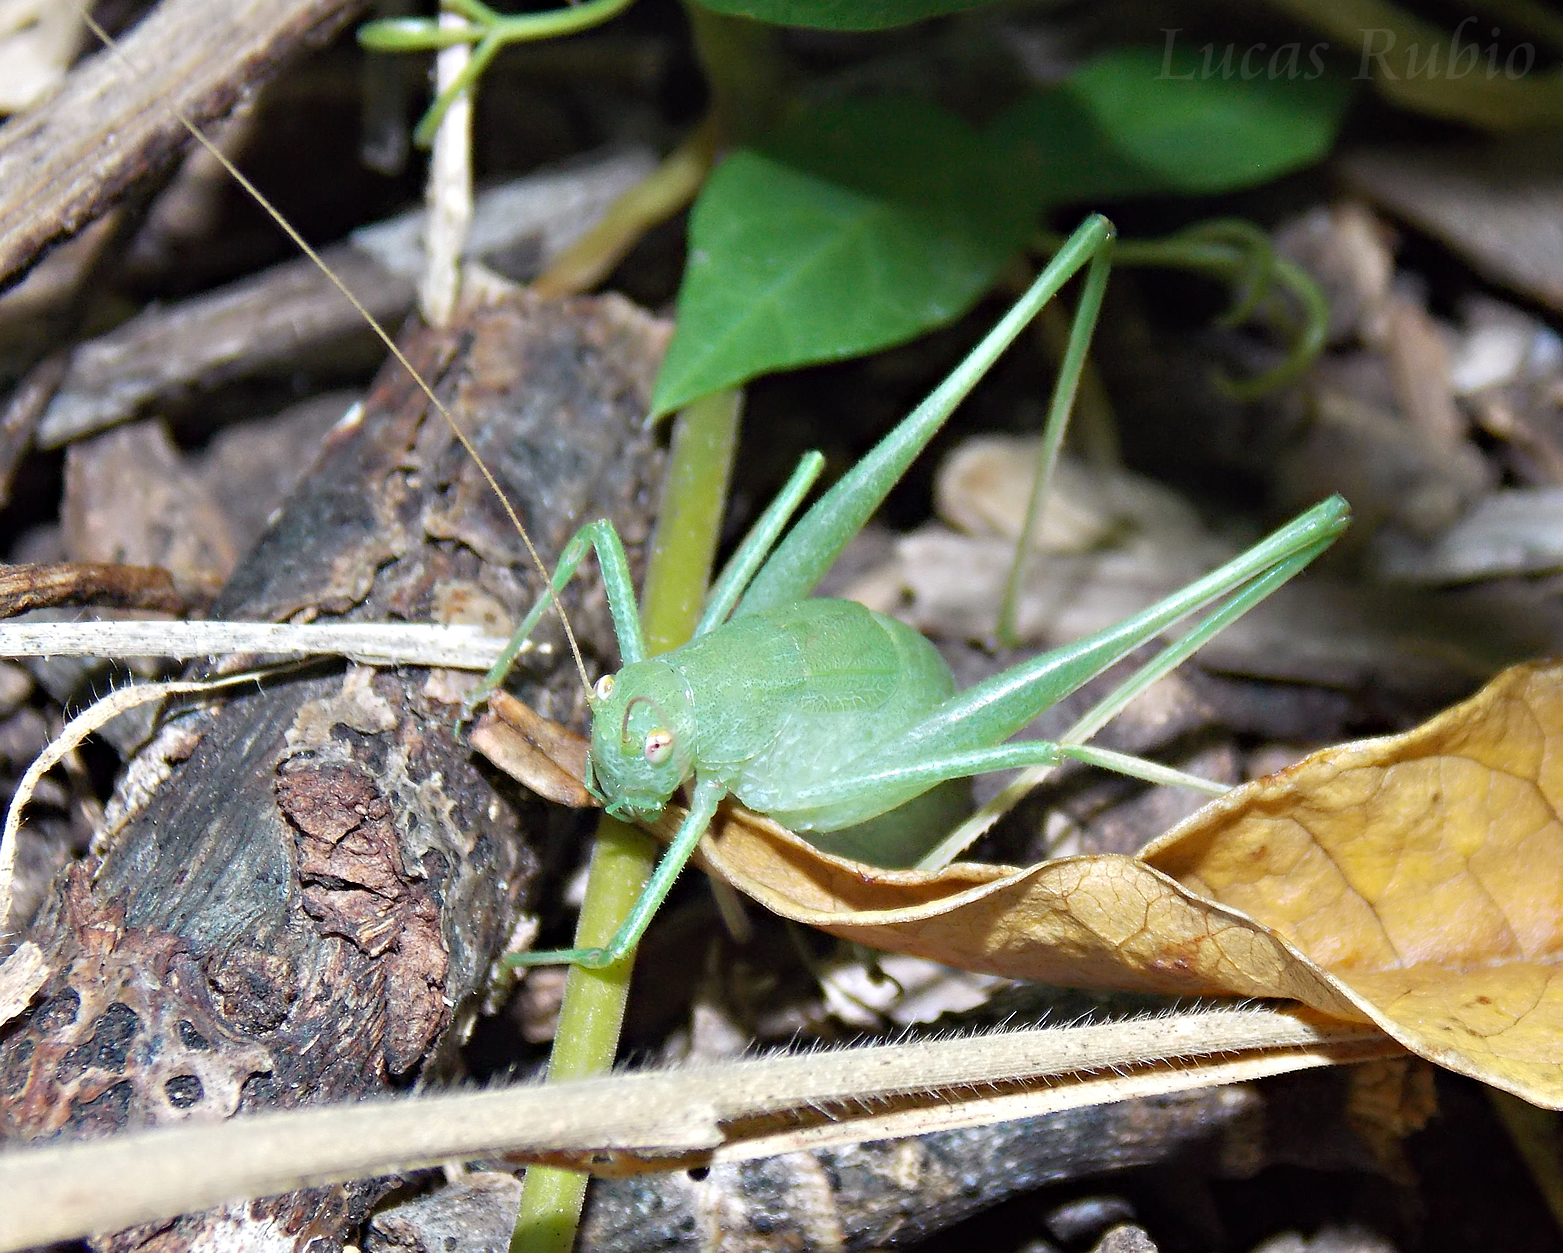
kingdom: Animalia
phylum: Arthropoda
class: Insecta
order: Orthoptera
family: Tettigoniidae
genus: Anisophya
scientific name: Anisophya punctinervis
